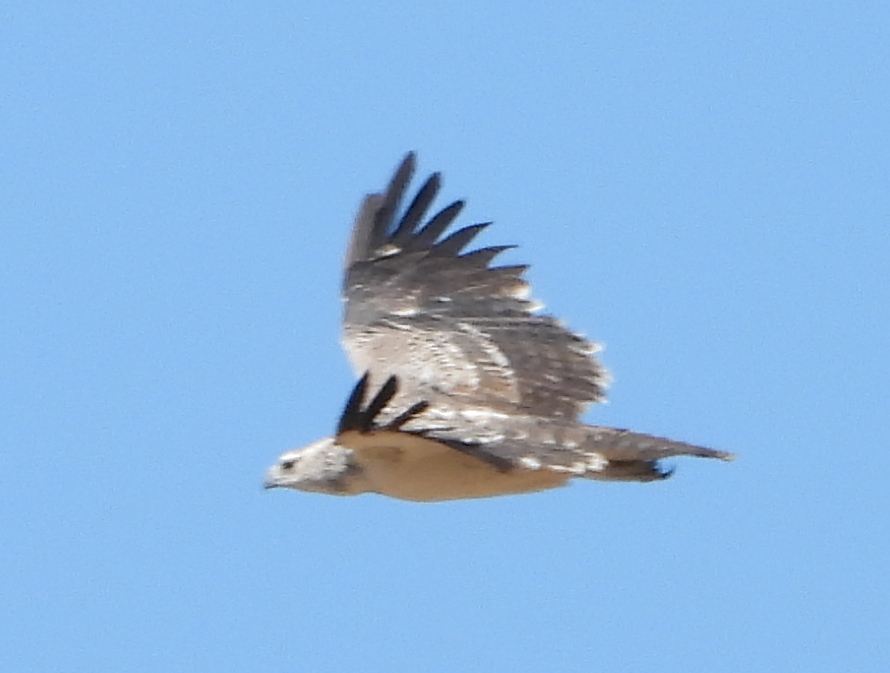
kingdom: Animalia
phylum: Chordata
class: Aves
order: Accipitriformes
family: Accipitridae
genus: Polemaetus
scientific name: Polemaetus bellicosus
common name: Martial eagle
